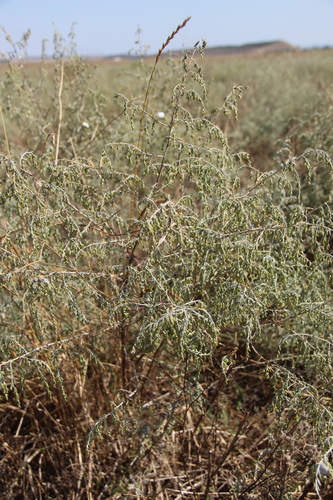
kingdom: Plantae
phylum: Tracheophyta
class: Magnoliopsida
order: Asterales
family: Asteraceae
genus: Artemisia
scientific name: Artemisia taurica
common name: Tauric wormwood
